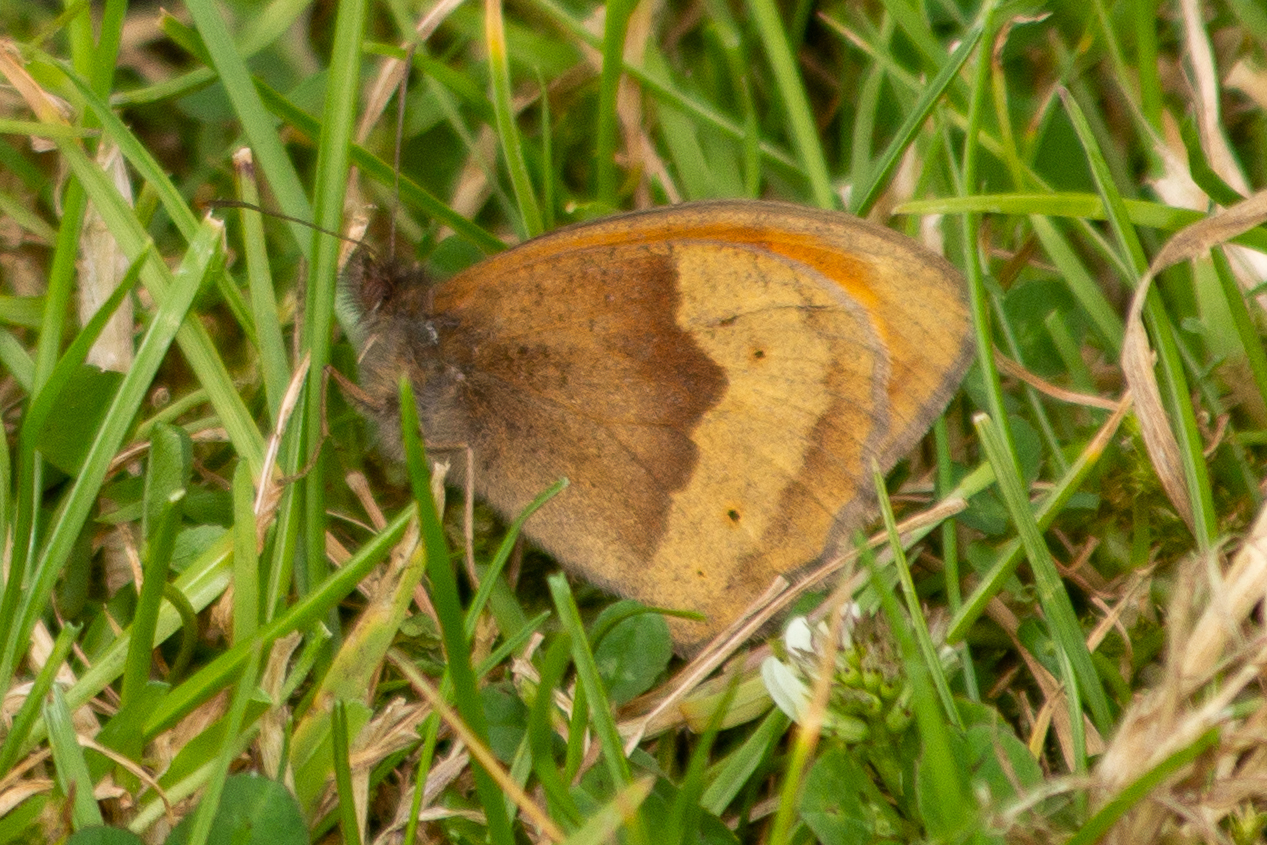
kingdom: Animalia
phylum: Arthropoda
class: Insecta
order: Lepidoptera
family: Nymphalidae
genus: Maniola
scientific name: Maniola jurtina
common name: Meadow brown
